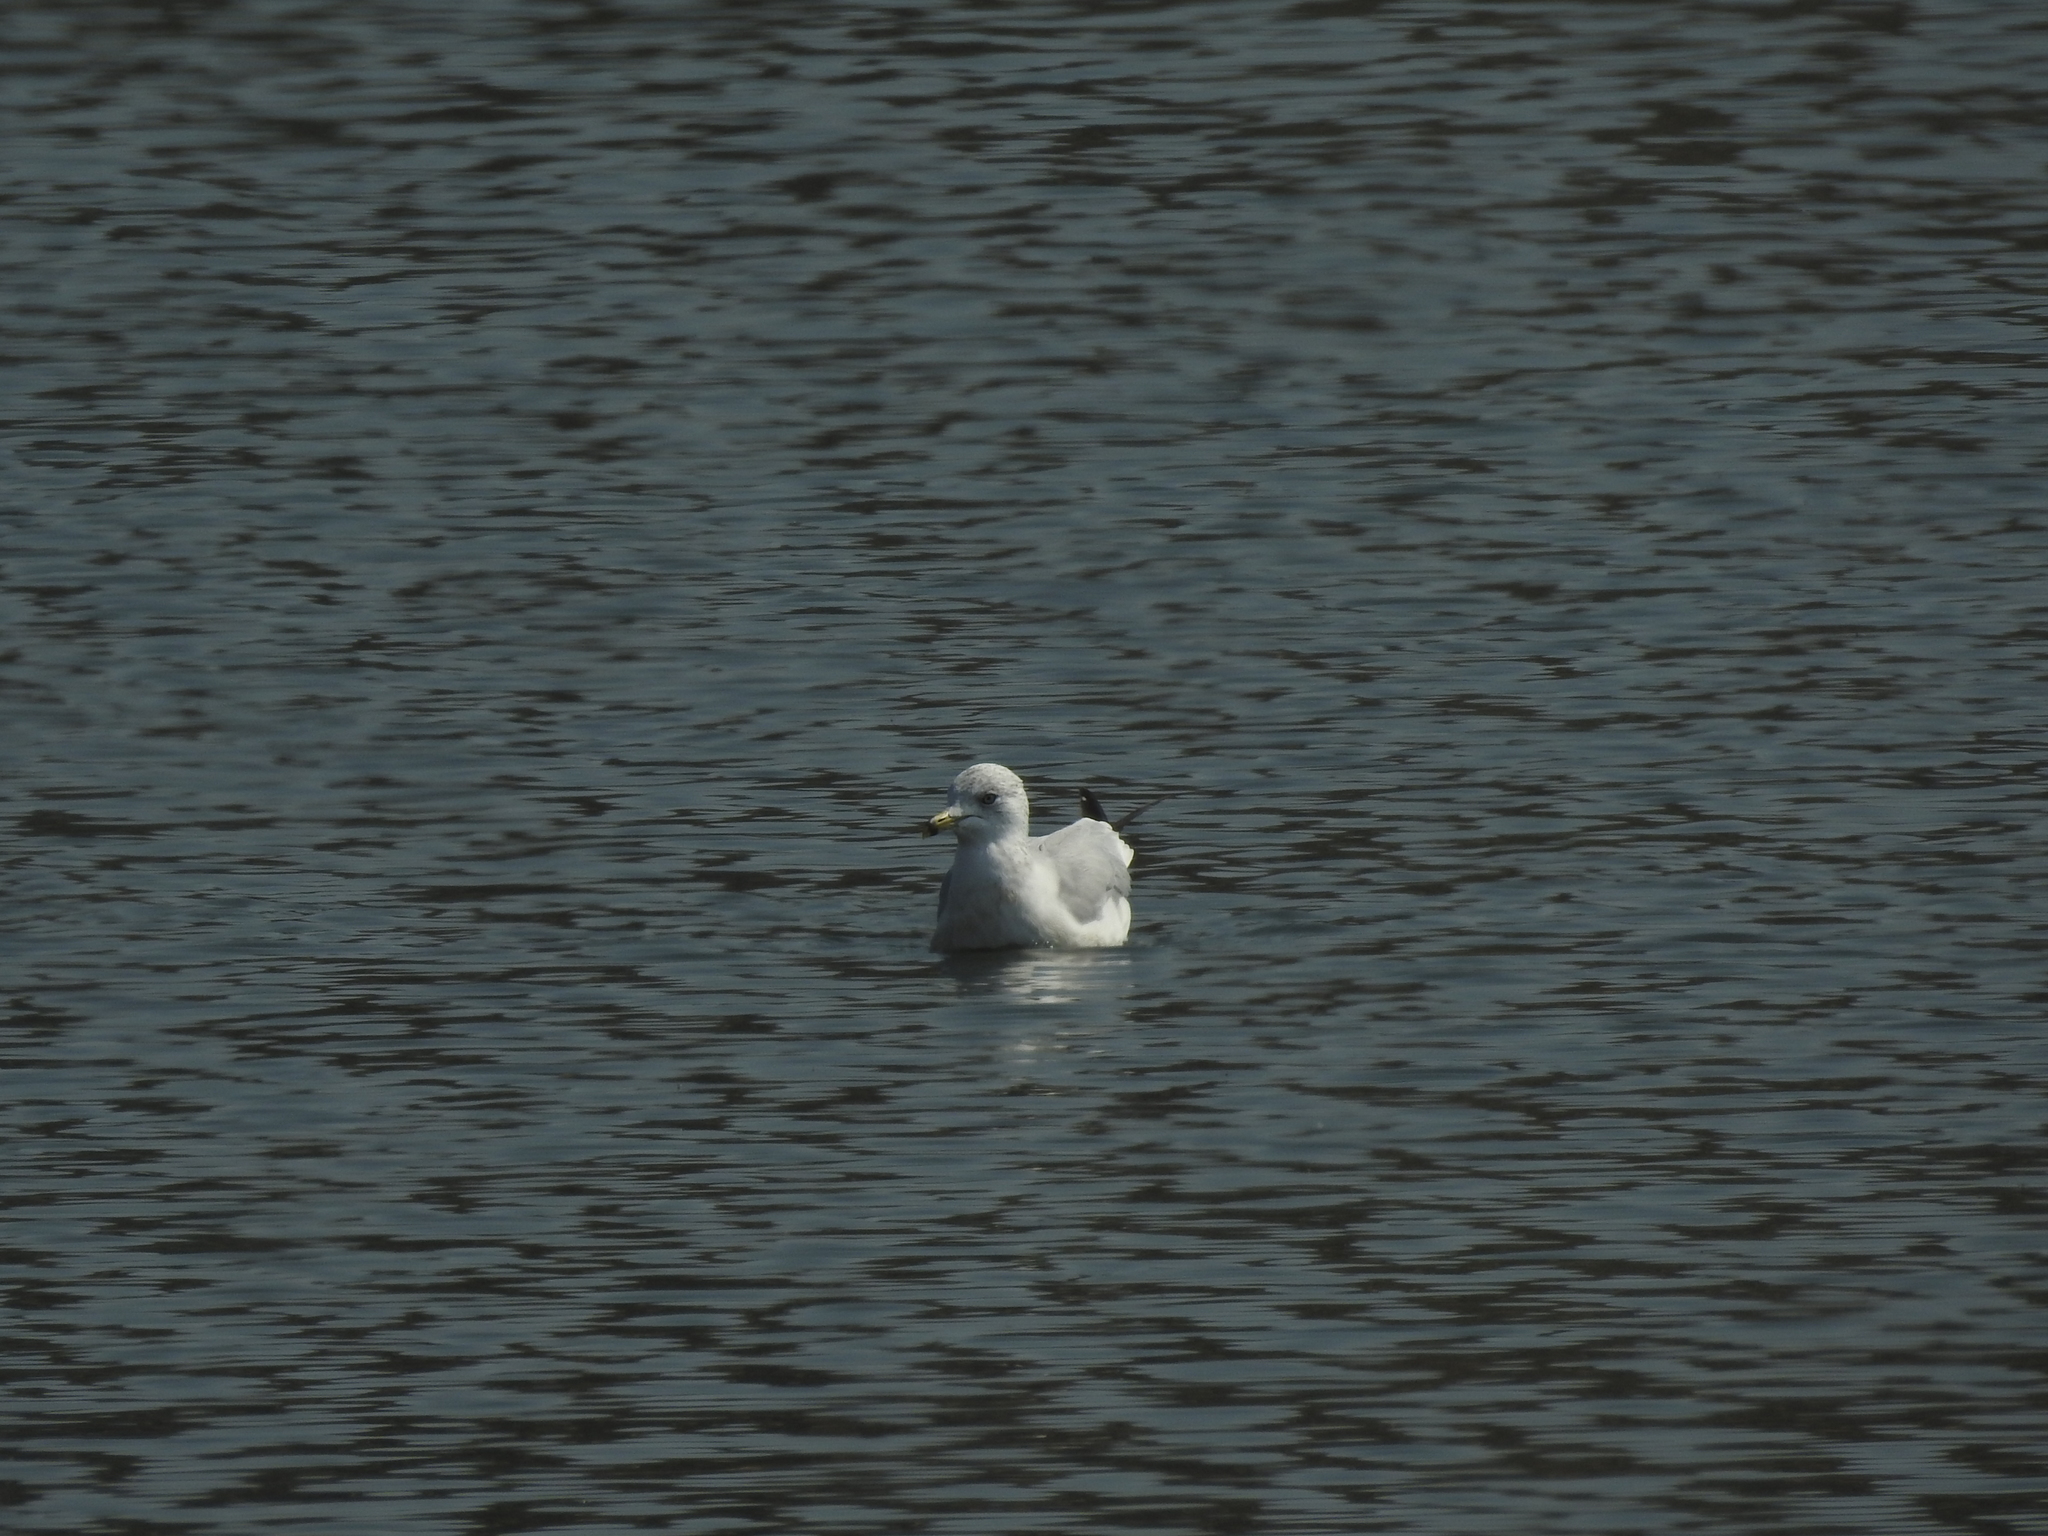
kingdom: Animalia
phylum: Chordata
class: Aves
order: Charadriiformes
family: Laridae
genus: Larus
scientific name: Larus delawarensis
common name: Ring-billed gull
